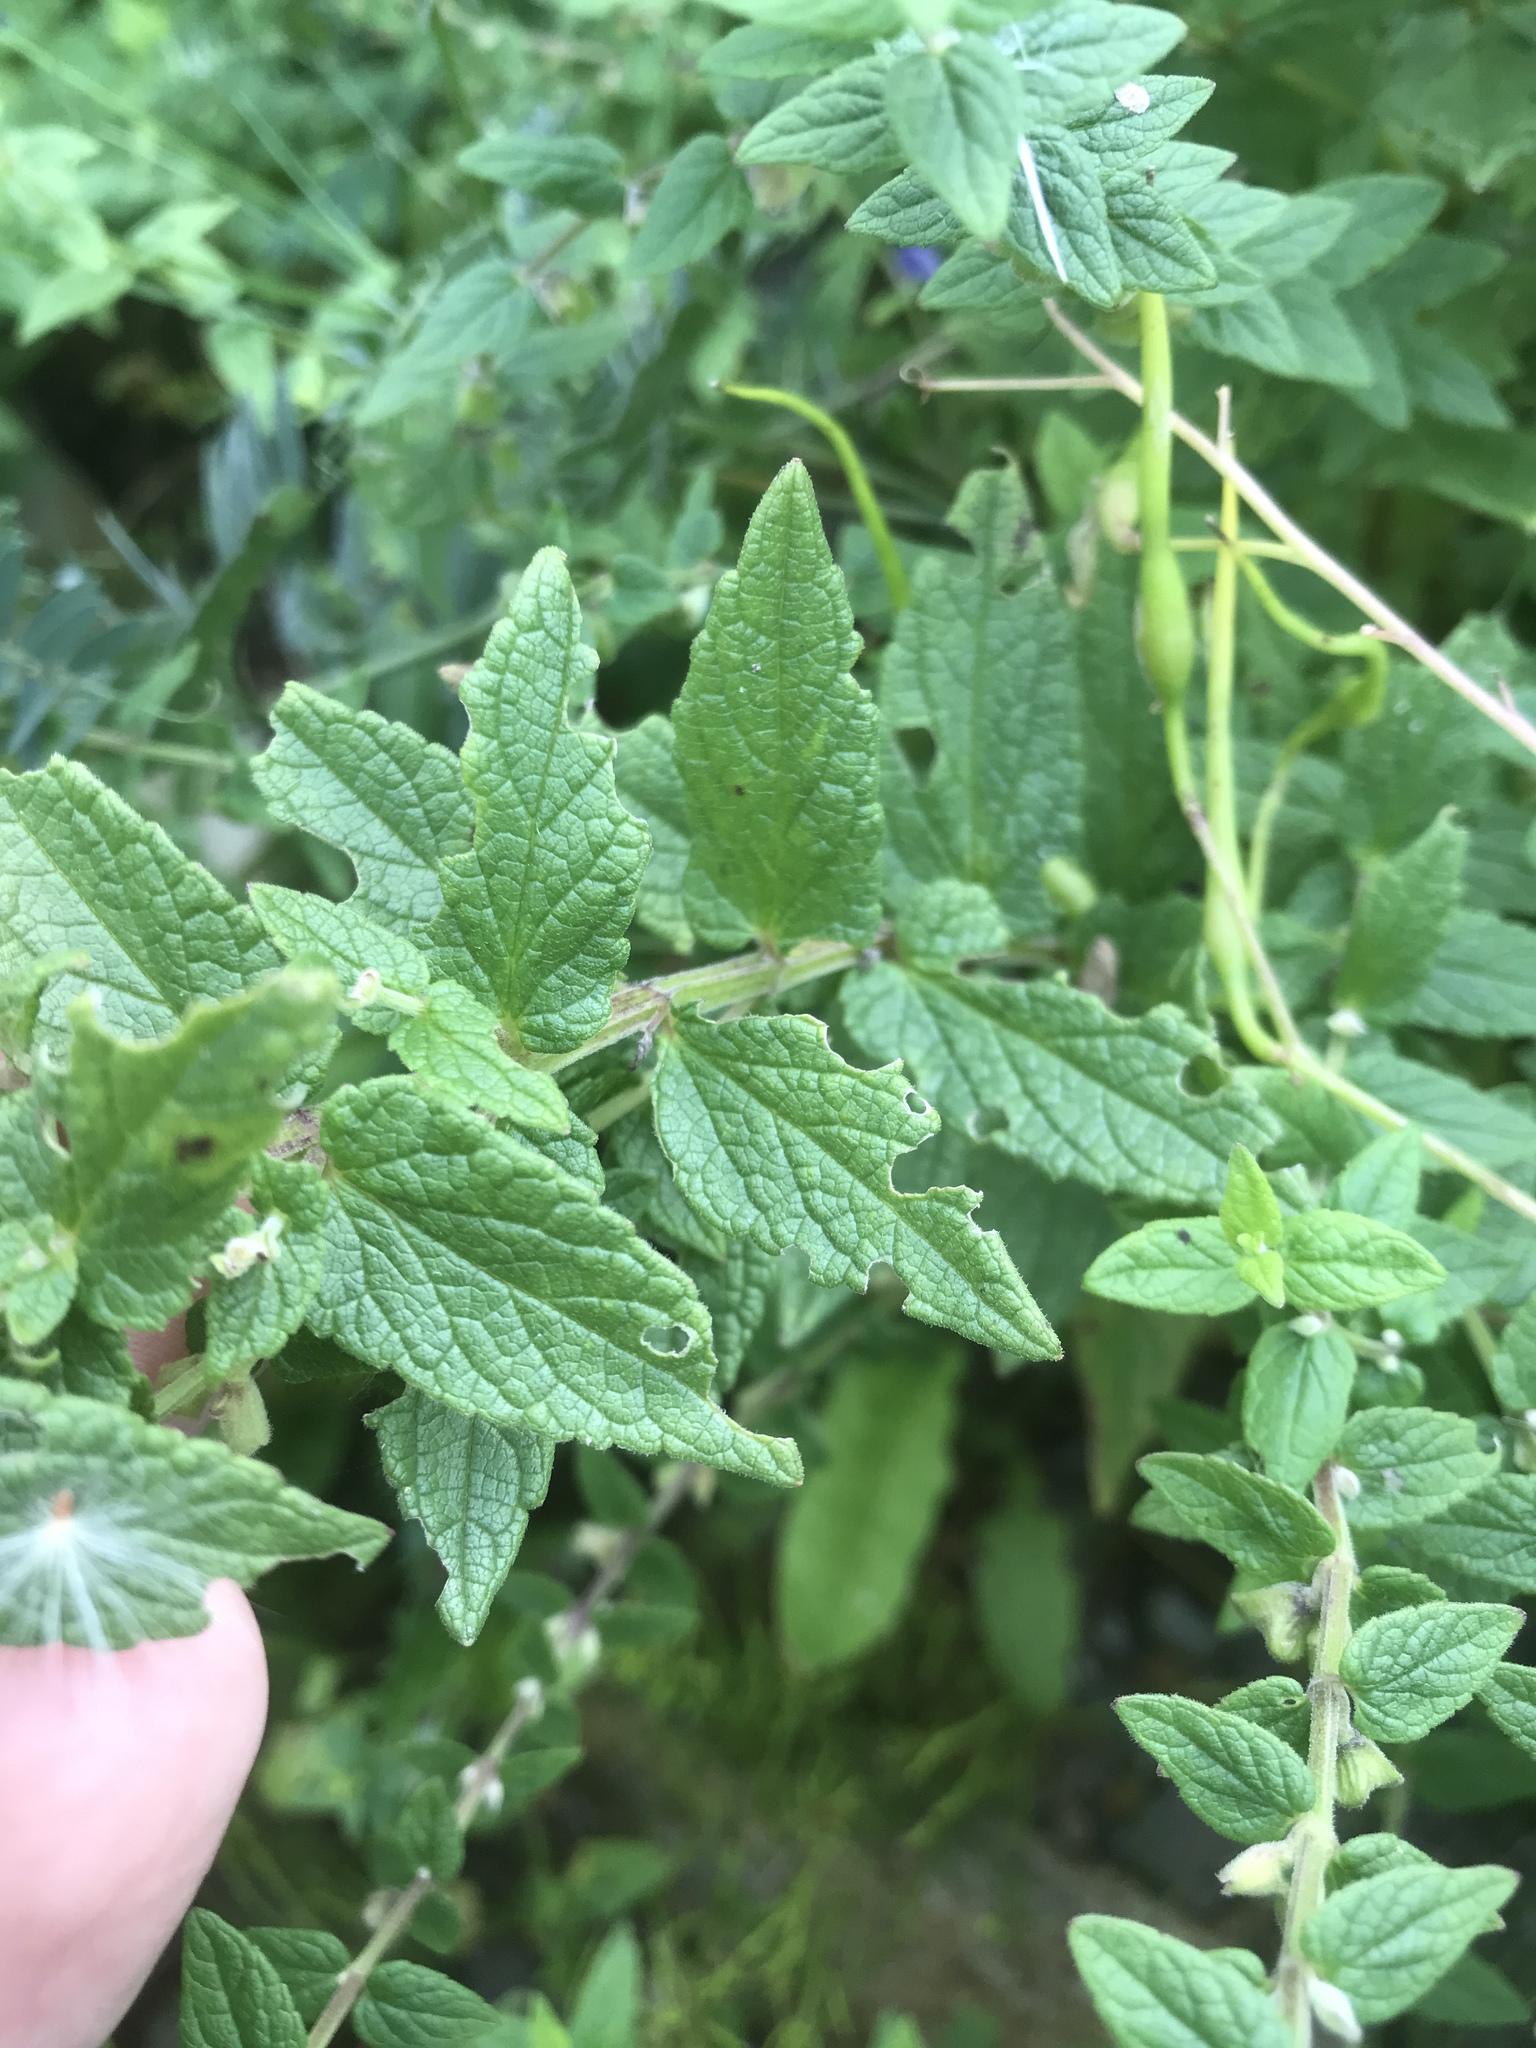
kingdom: Plantae
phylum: Tracheophyta
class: Magnoliopsida
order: Lamiales
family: Lamiaceae
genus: Scutellaria
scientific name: Scutellaria galericulata
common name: Skullcap
